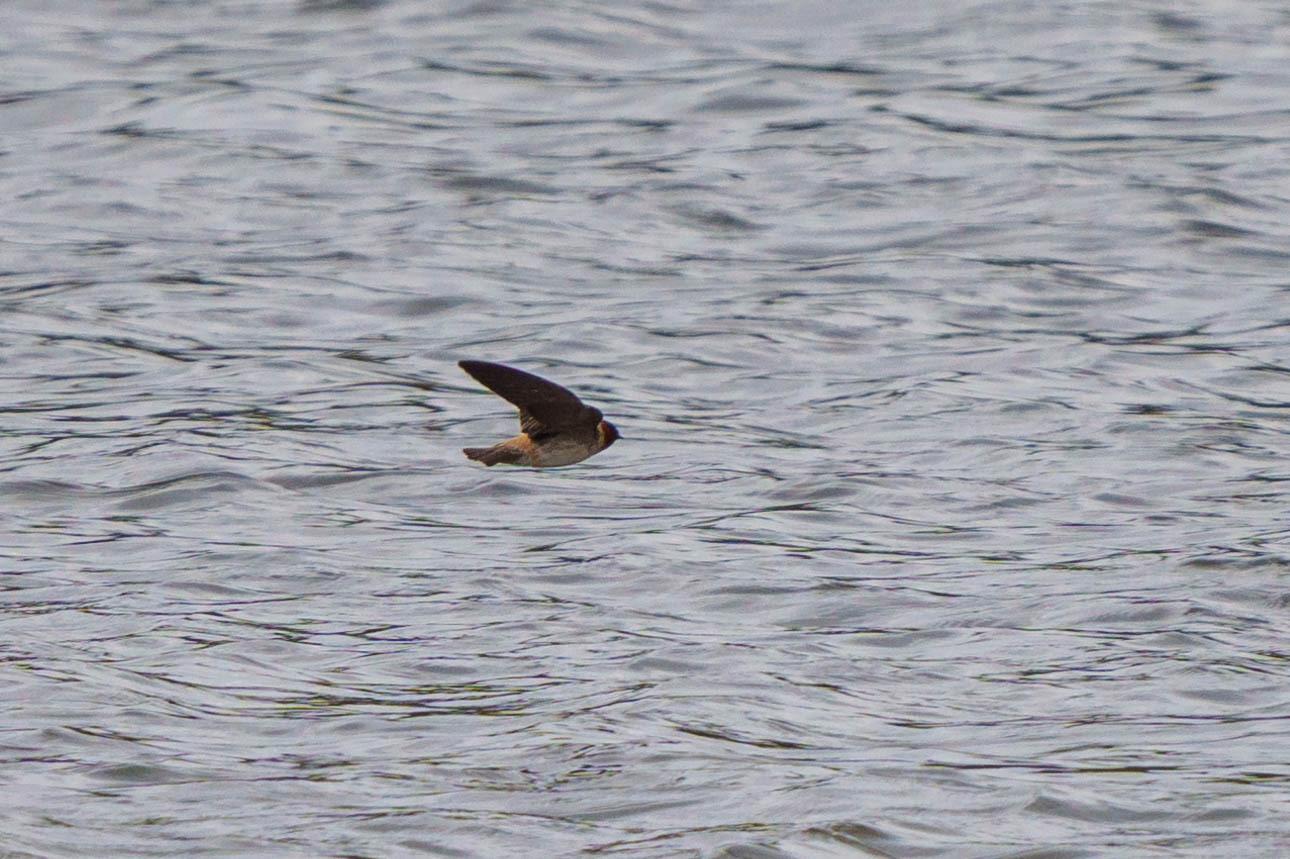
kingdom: Animalia
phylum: Chordata
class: Aves
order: Passeriformes
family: Hirundinidae
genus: Petrochelidon
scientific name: Petrochelidon pyrrhonota
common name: American cliff swallow
